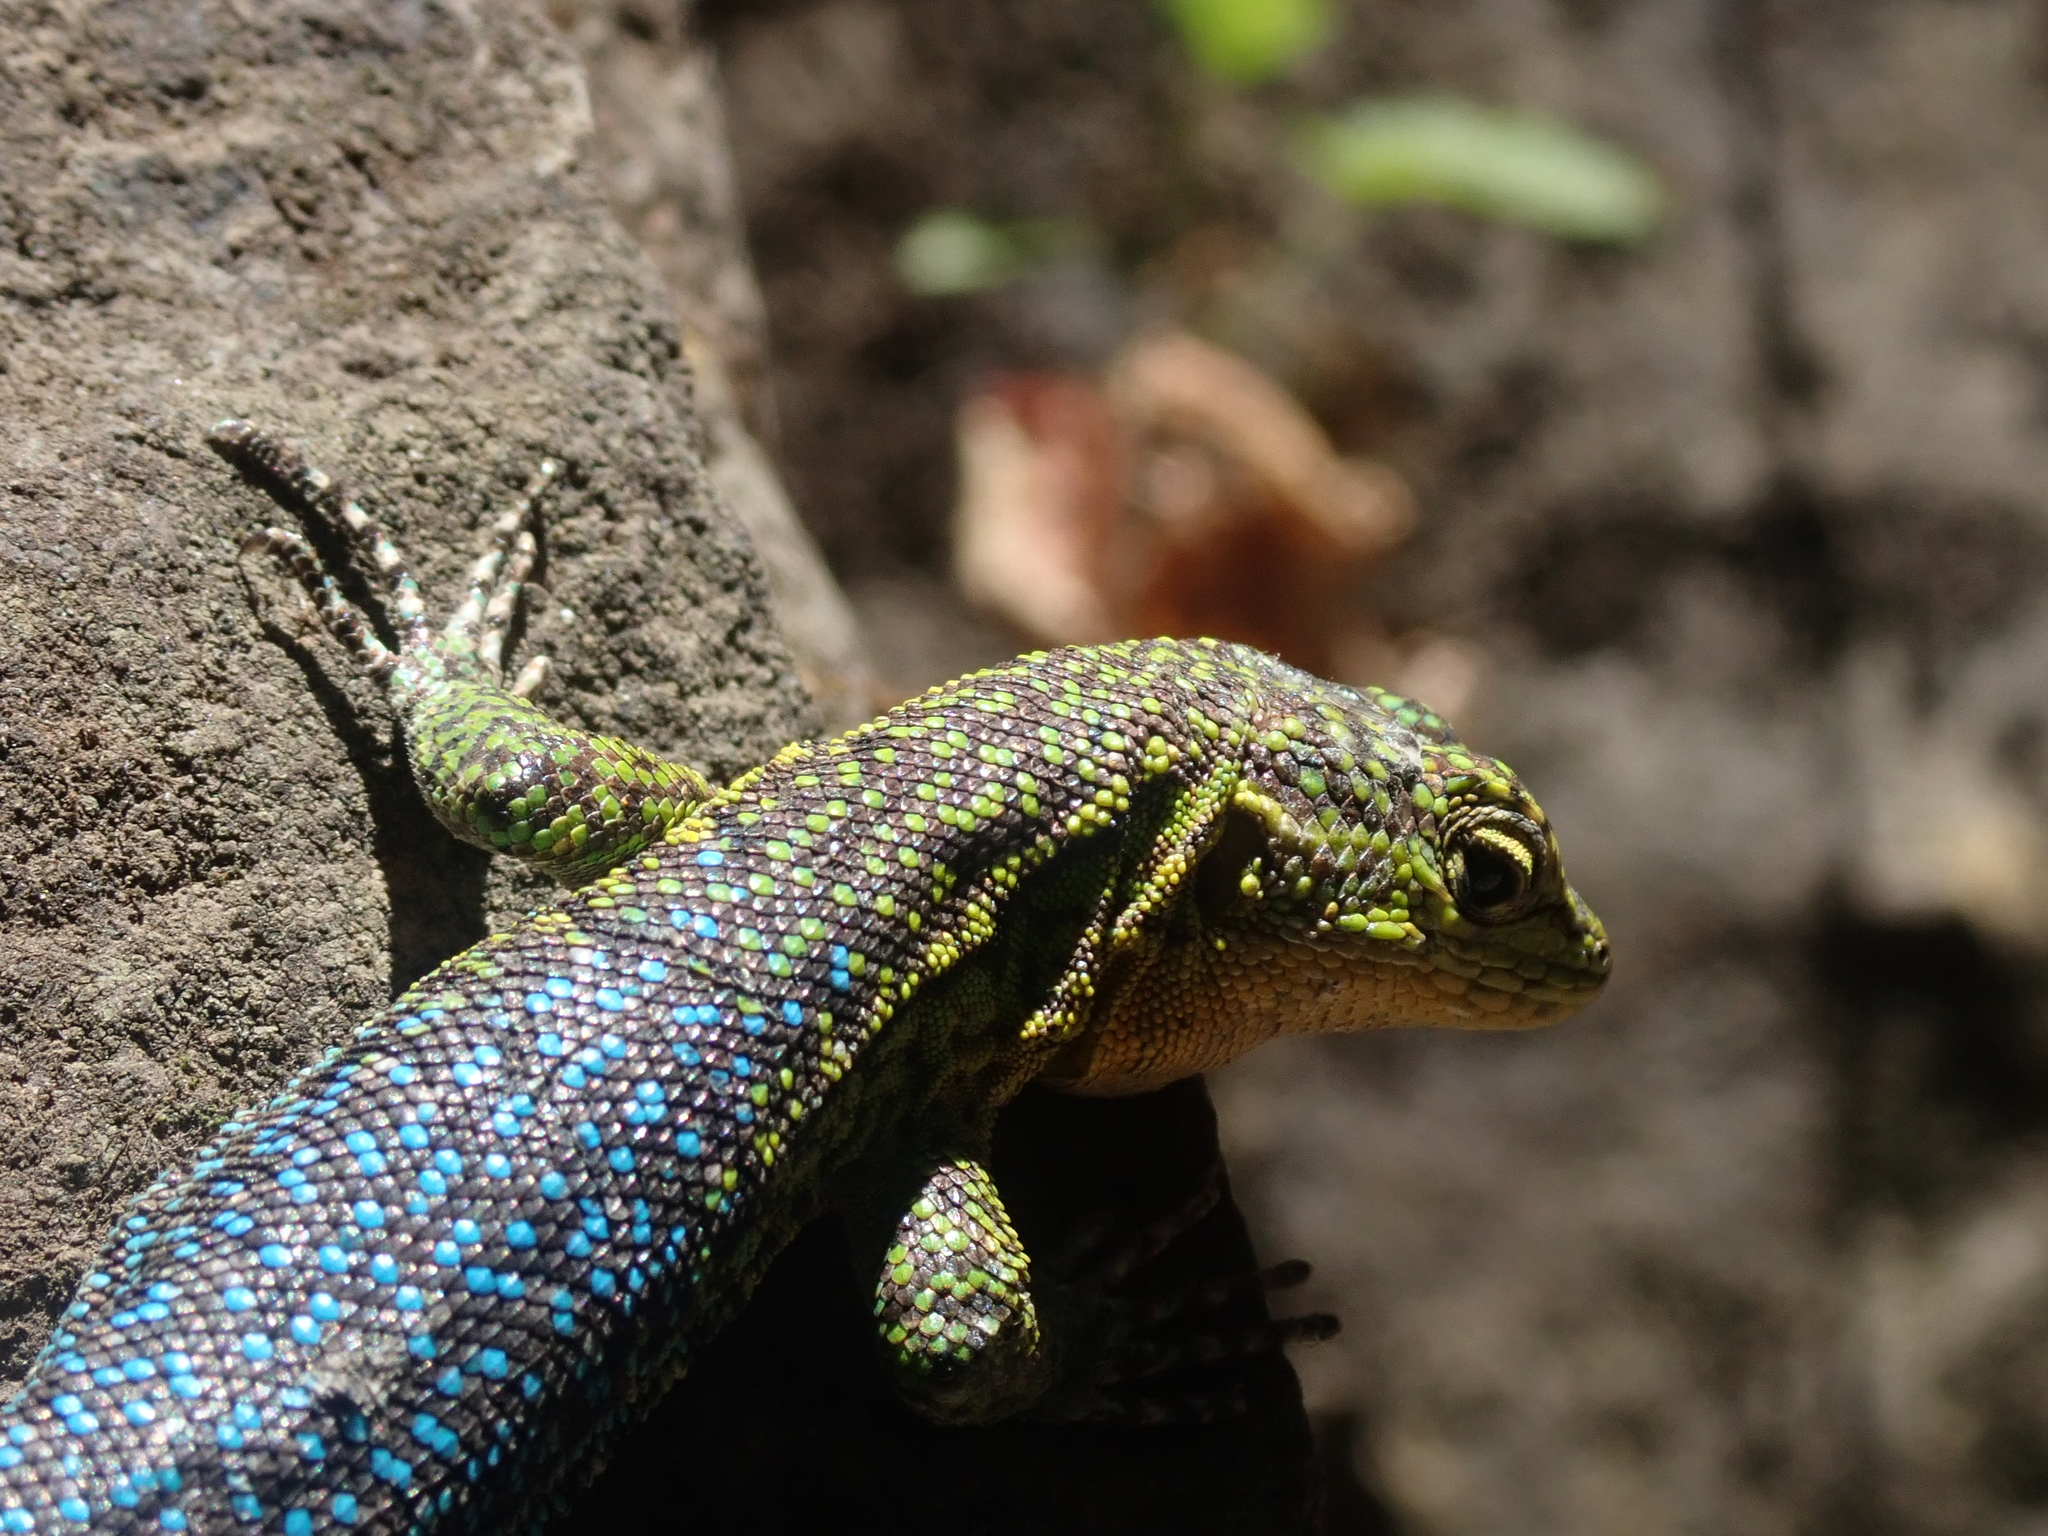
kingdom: Animalia
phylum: Chordata
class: Squamata
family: Liolaemidae
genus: Liolaemus
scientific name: Liolaemus tenuis
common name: Thin tree iguana
